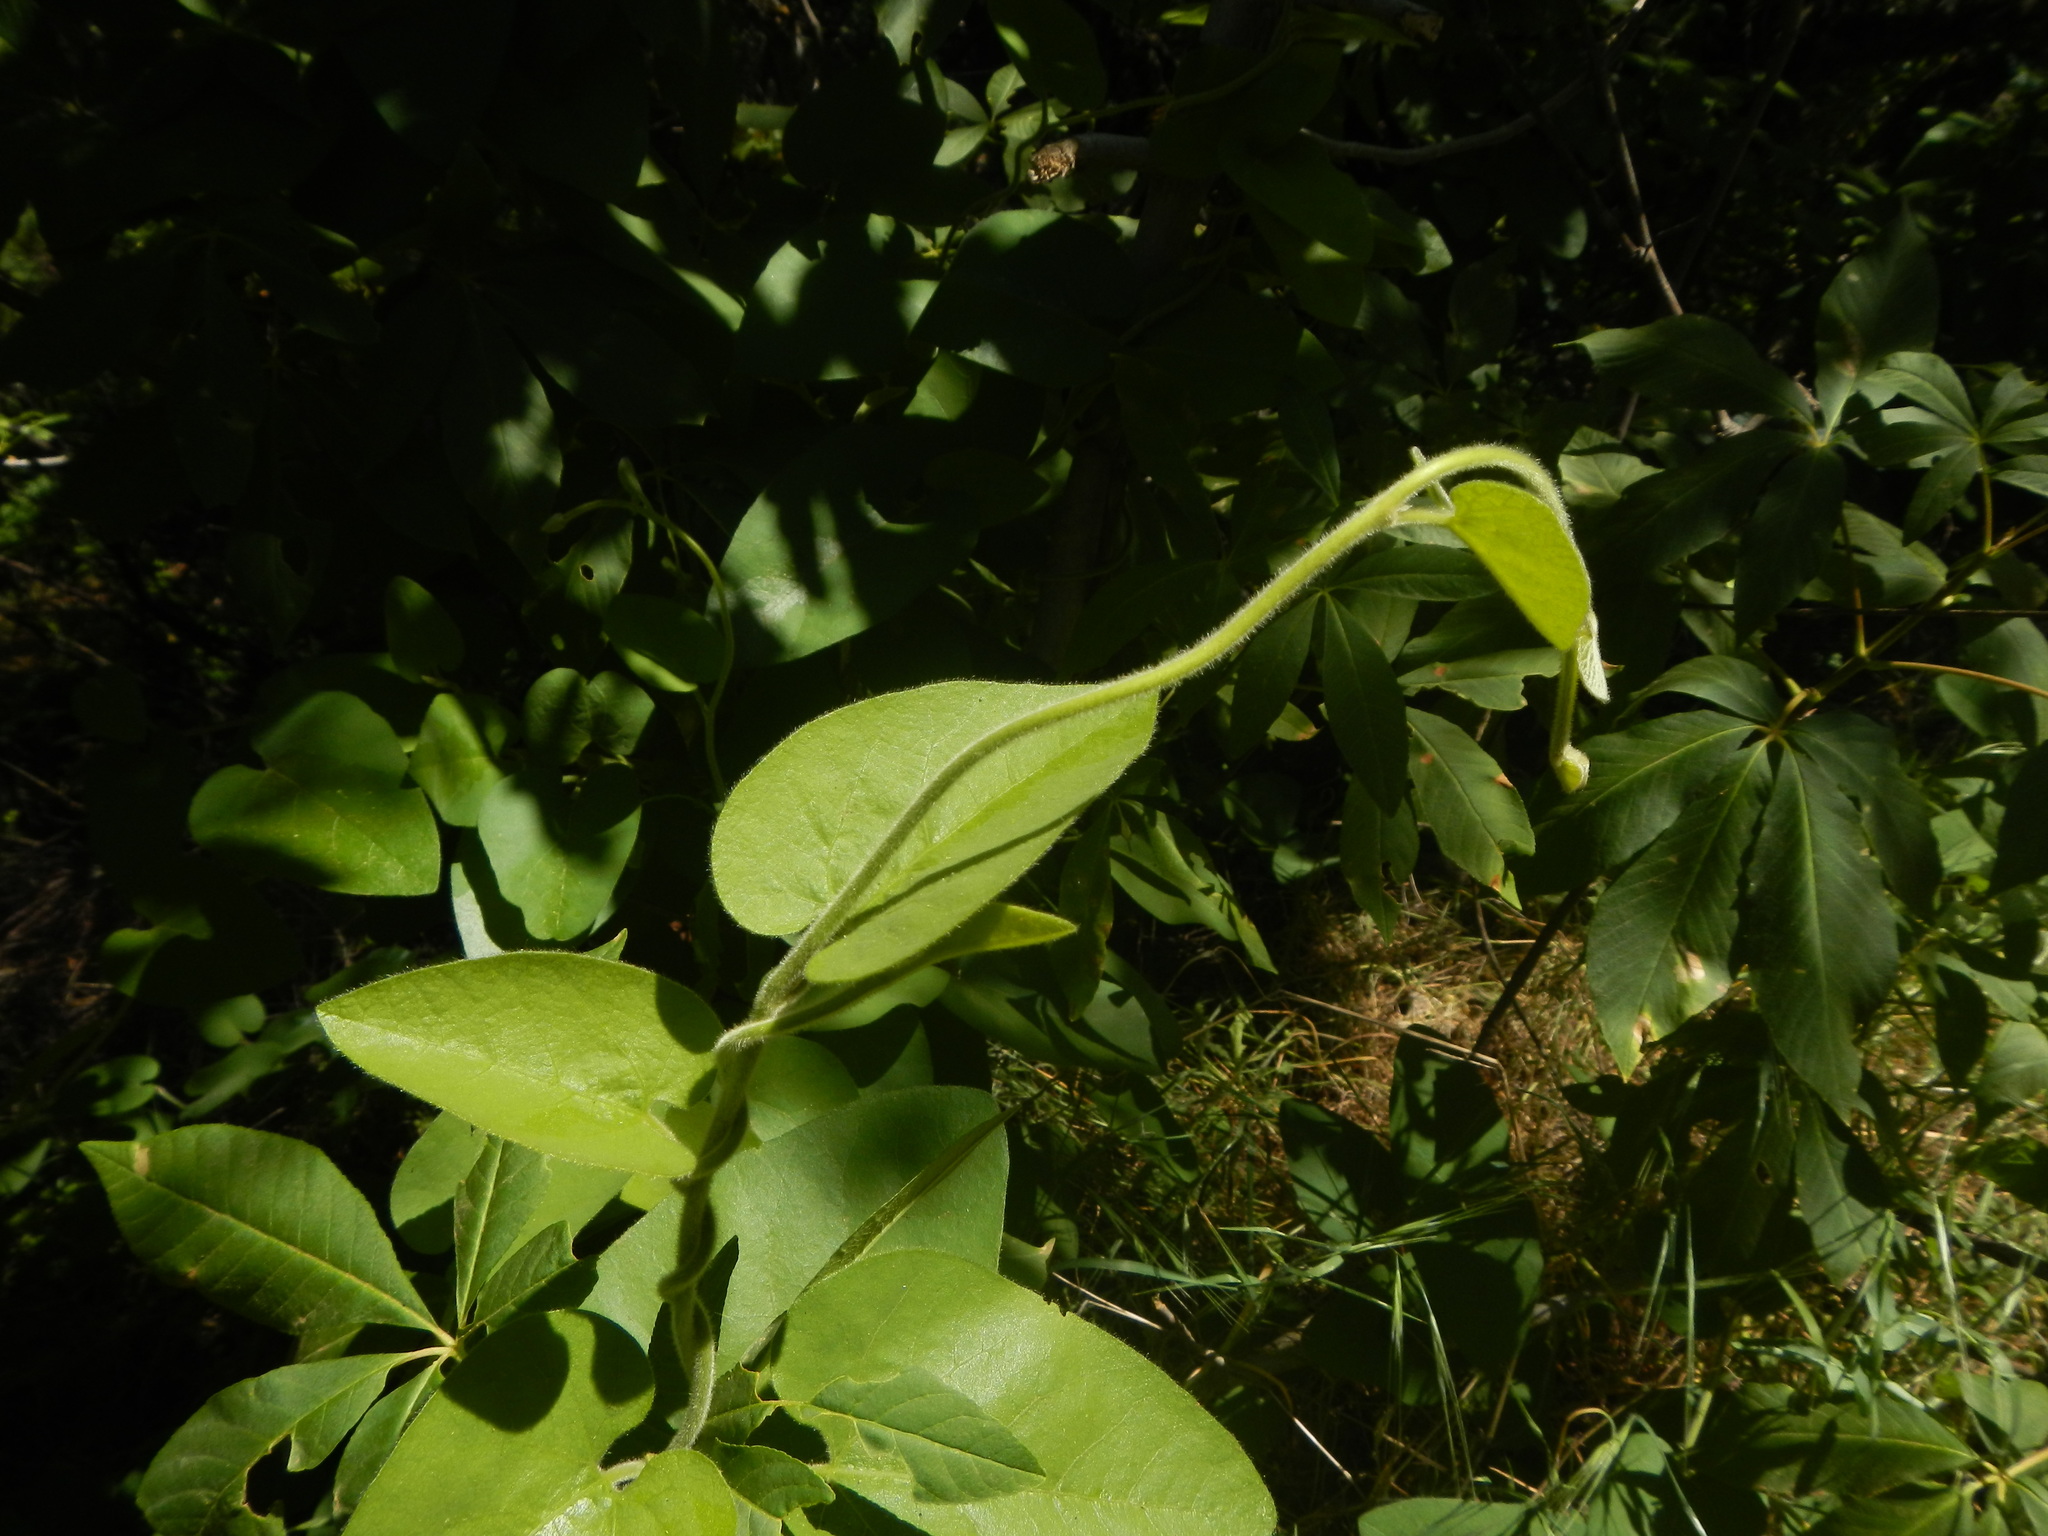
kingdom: Plantae
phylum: Tracheophyta
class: Magnoliopsida
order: Piperales
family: Aristolochiaceae
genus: Isotrema
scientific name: Isotrema californicum
